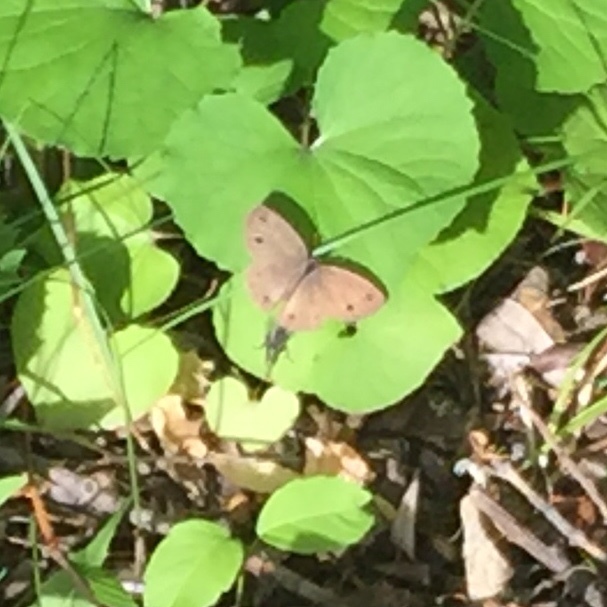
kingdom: Animalia
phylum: Arthropoda
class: Insecta
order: Lepidoptera
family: Nymphalidae
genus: Euptychia
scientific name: Euptychia cymela
